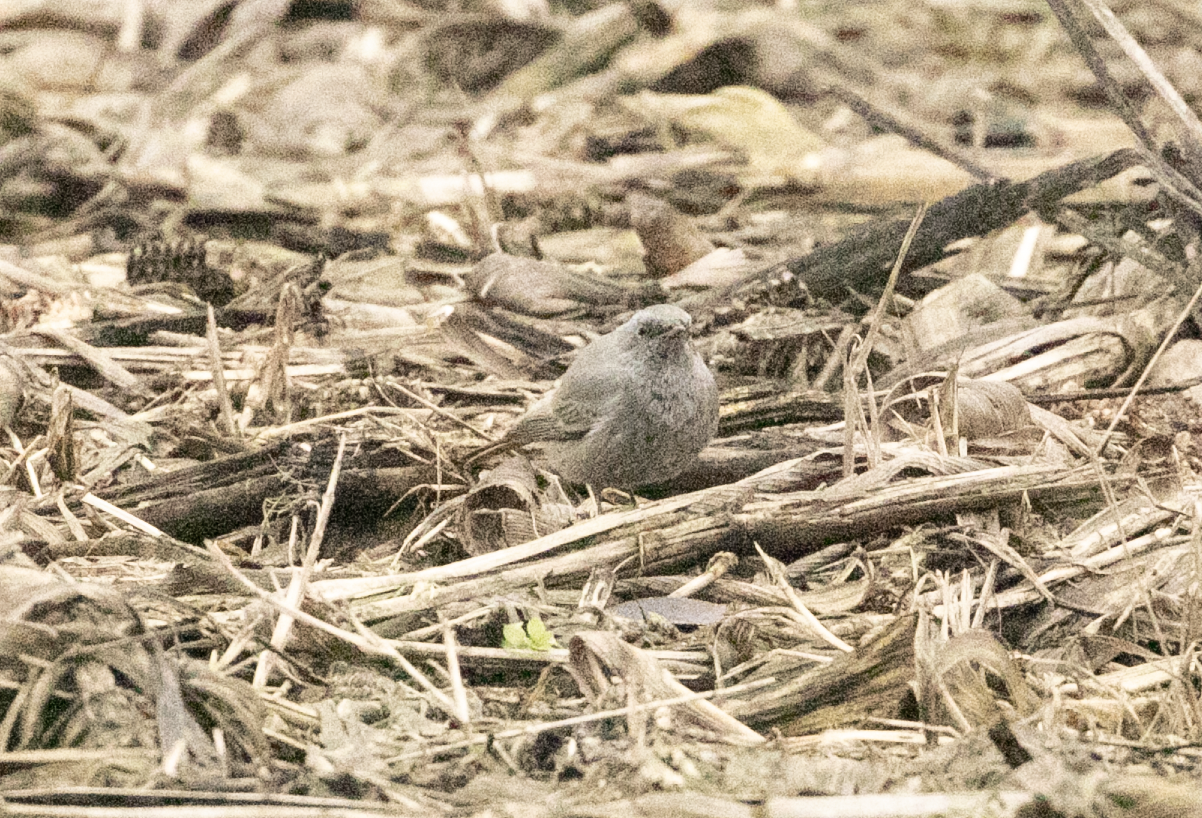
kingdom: Animalia
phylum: Chordata
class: Aves
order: Passeriformes
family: Muscicapidae
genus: Phoenicurus
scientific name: Phoenicurus ochruros
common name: Black redstart
